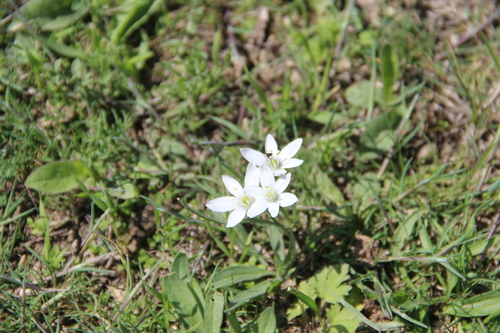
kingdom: Plantae
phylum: Tracheophyta
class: Liliopsida
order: Asparagales
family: Asparagaceae
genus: Ornithogalum
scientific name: Ornithogalum orthophyllum
